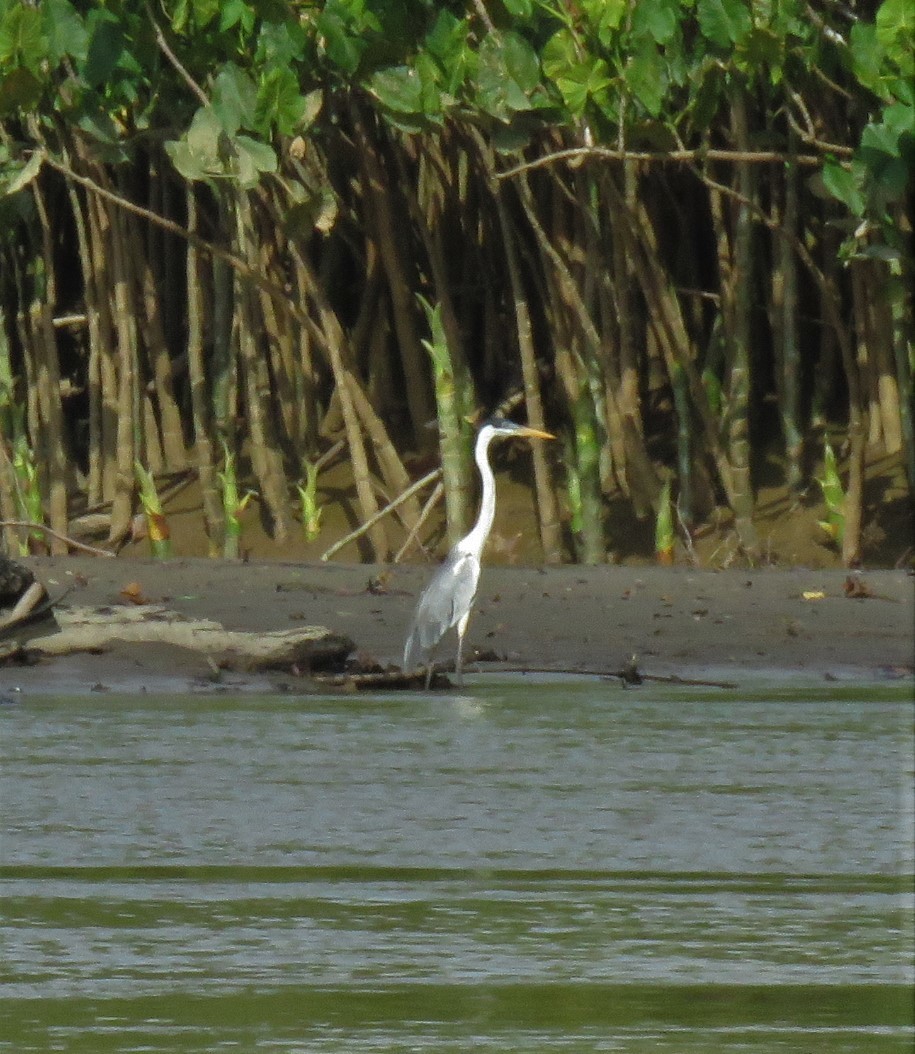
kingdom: Animalia
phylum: Chordata
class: Aves
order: Pelecaniformes
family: Ardeidae
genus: Ardea
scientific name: Ardea cocoi
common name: Cocoi heron
